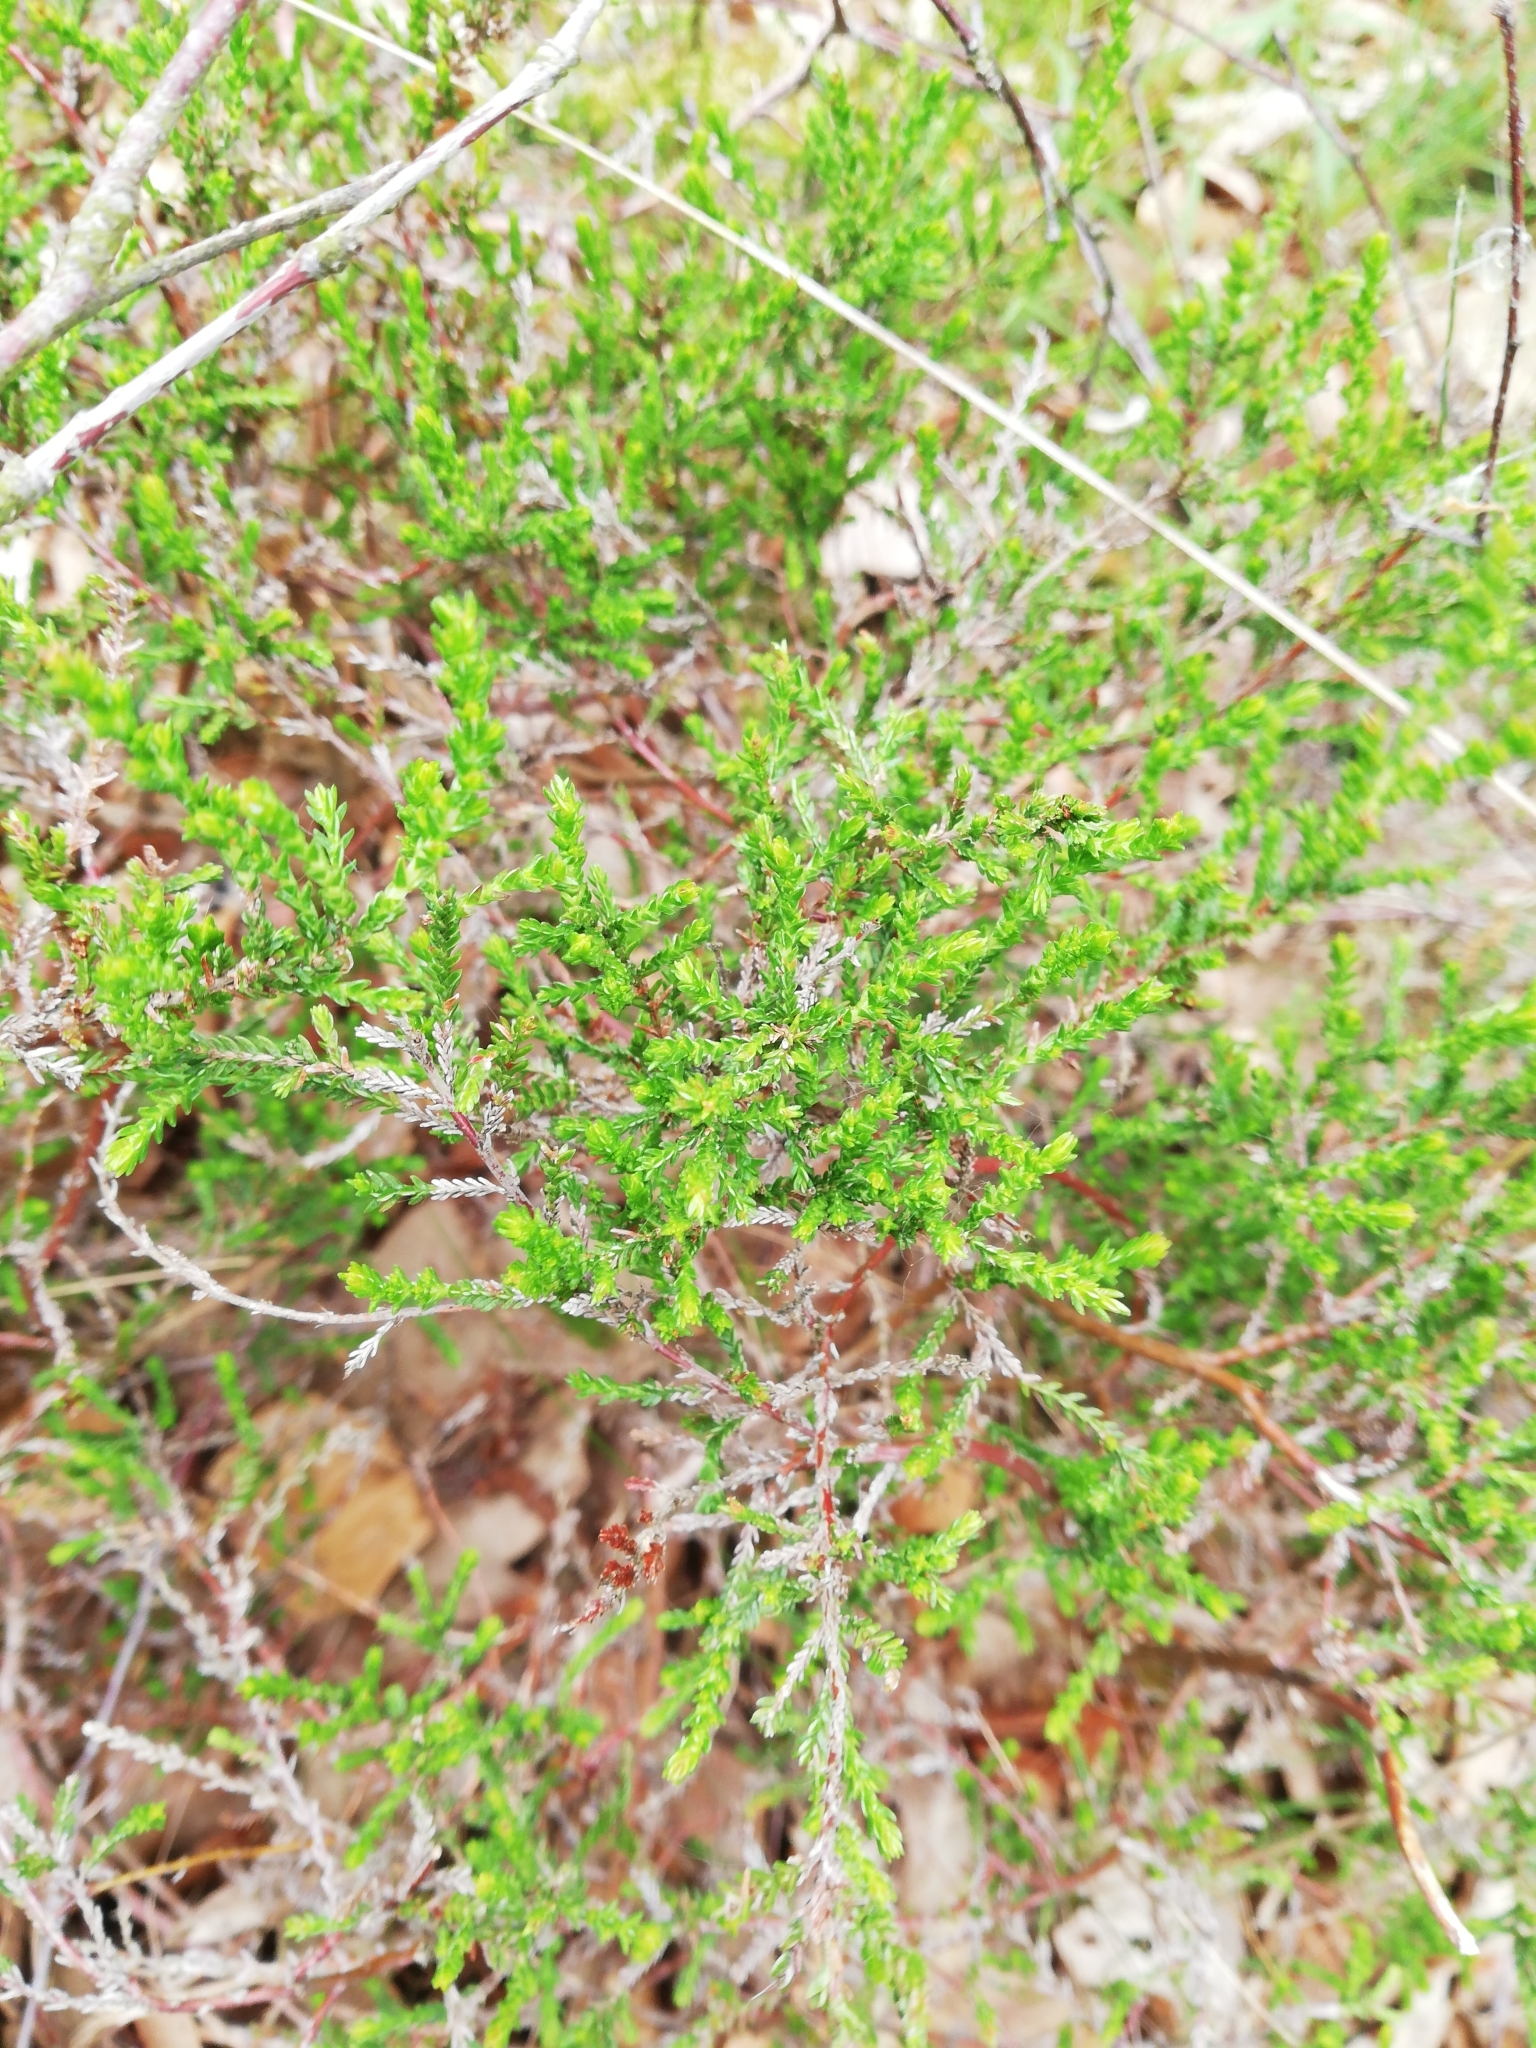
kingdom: Plantae
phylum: Tracheophyta
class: Magnoliopsida
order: Ericales
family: Ericaceae
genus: Calluna
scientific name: Calluna vulgaris
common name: Heather
